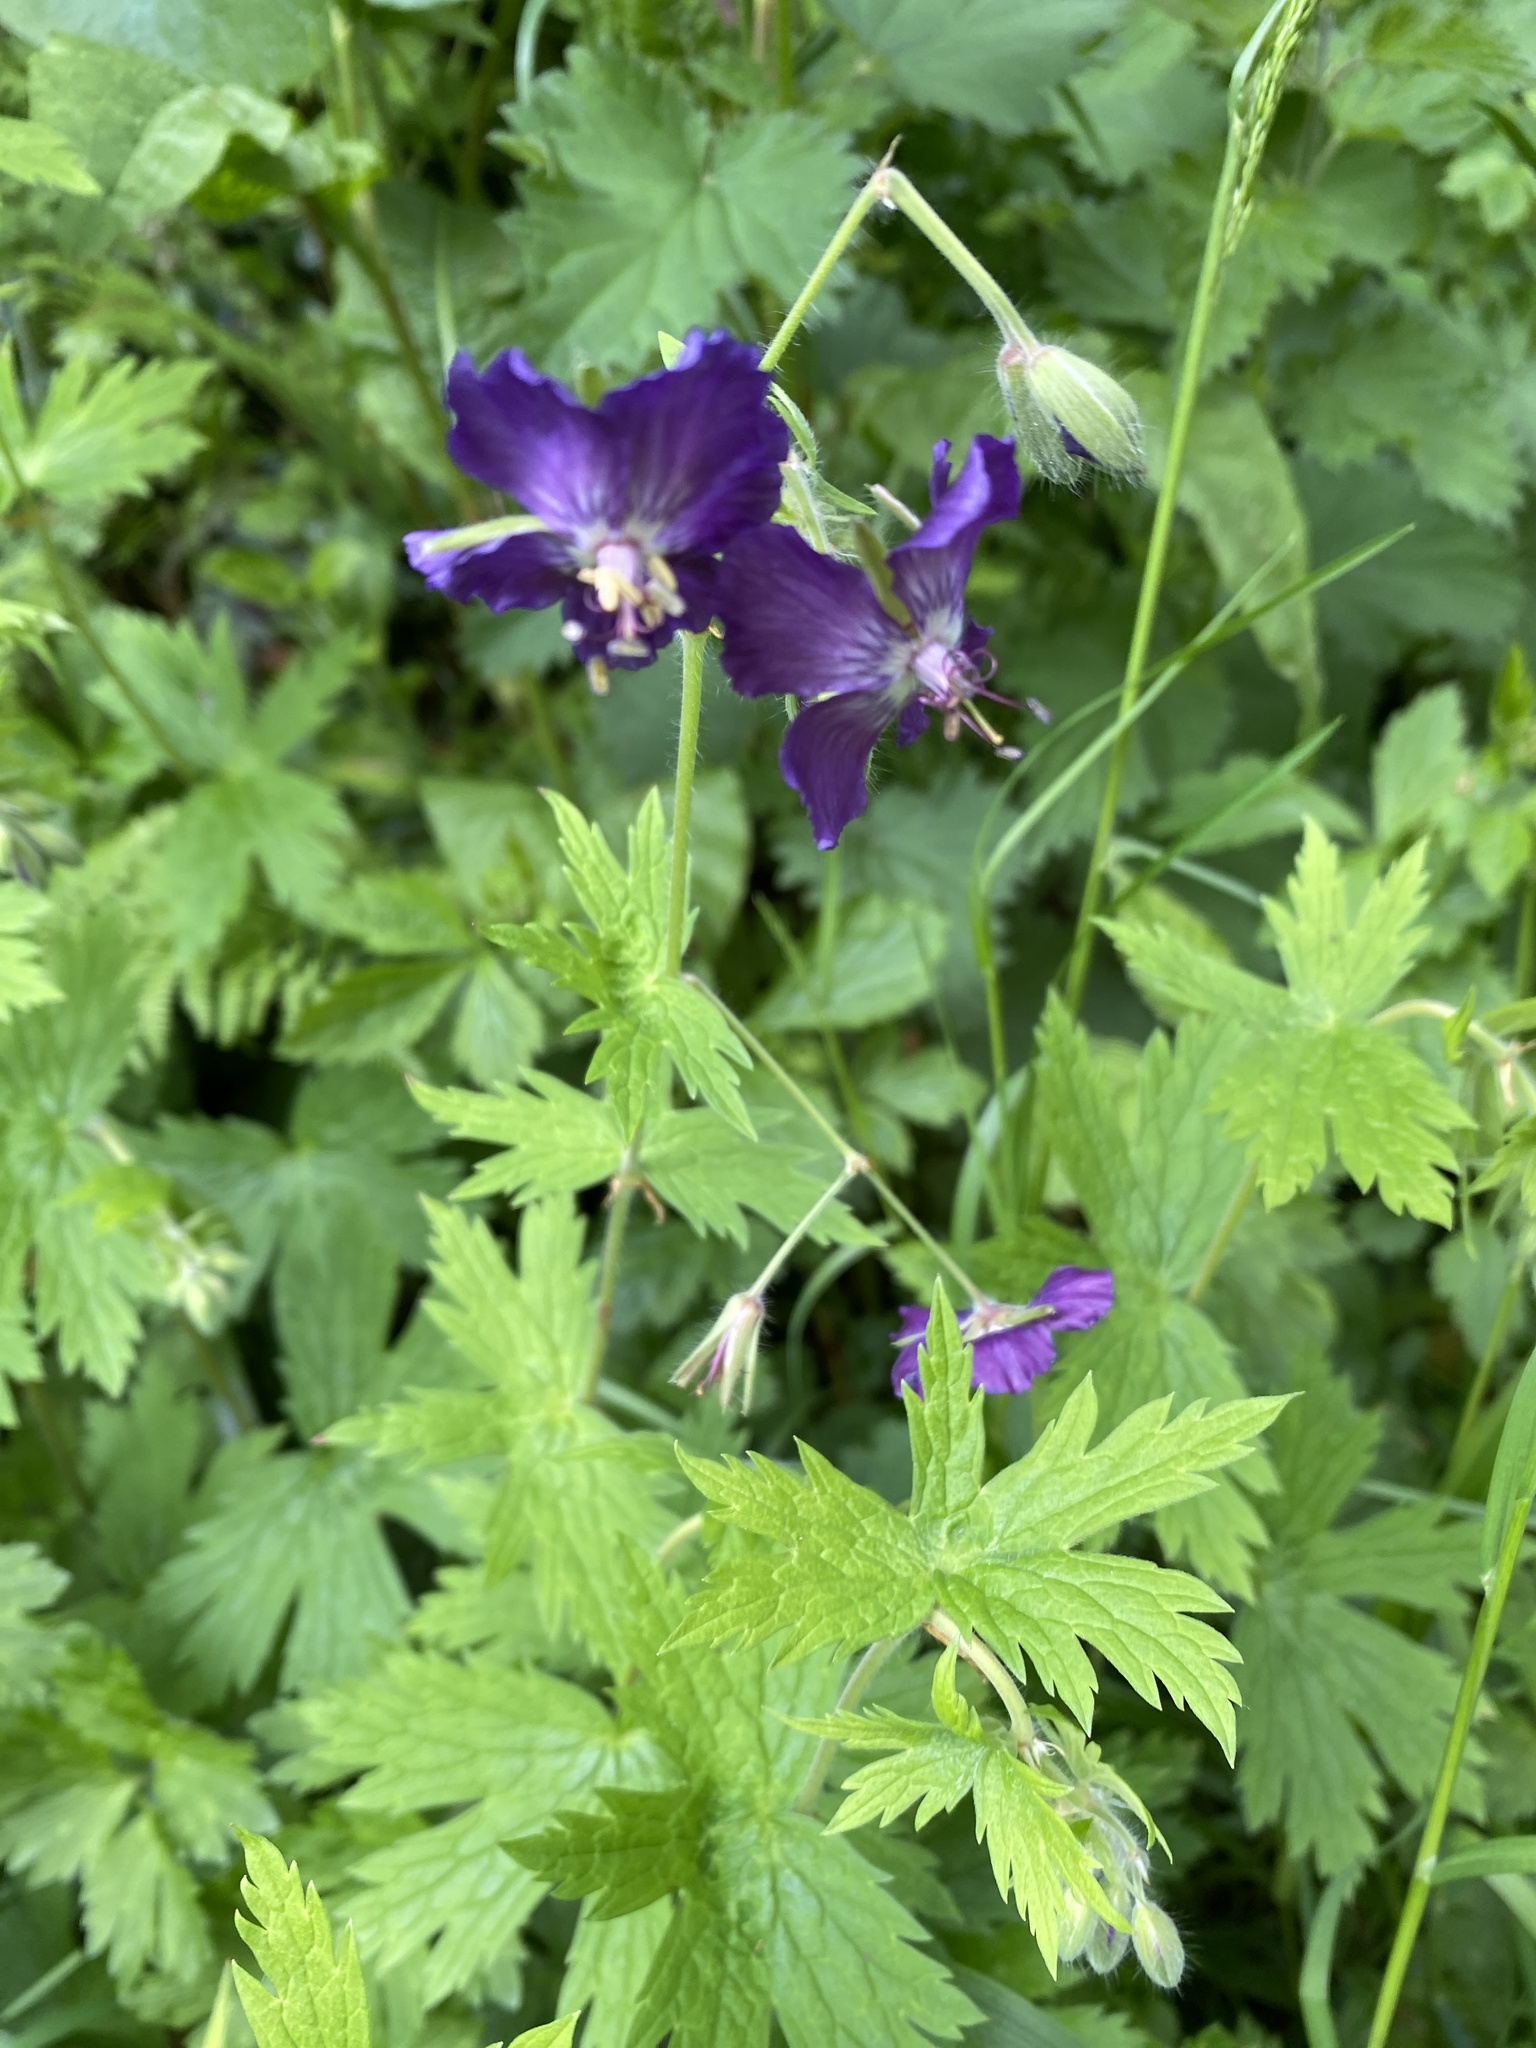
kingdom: Plantae
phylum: Tracheophyta
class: Magnoliopsida
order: Geraniales
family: Geraniaceae
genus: Geranium
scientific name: Geranium phaeum
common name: Dusky crane's-bill
